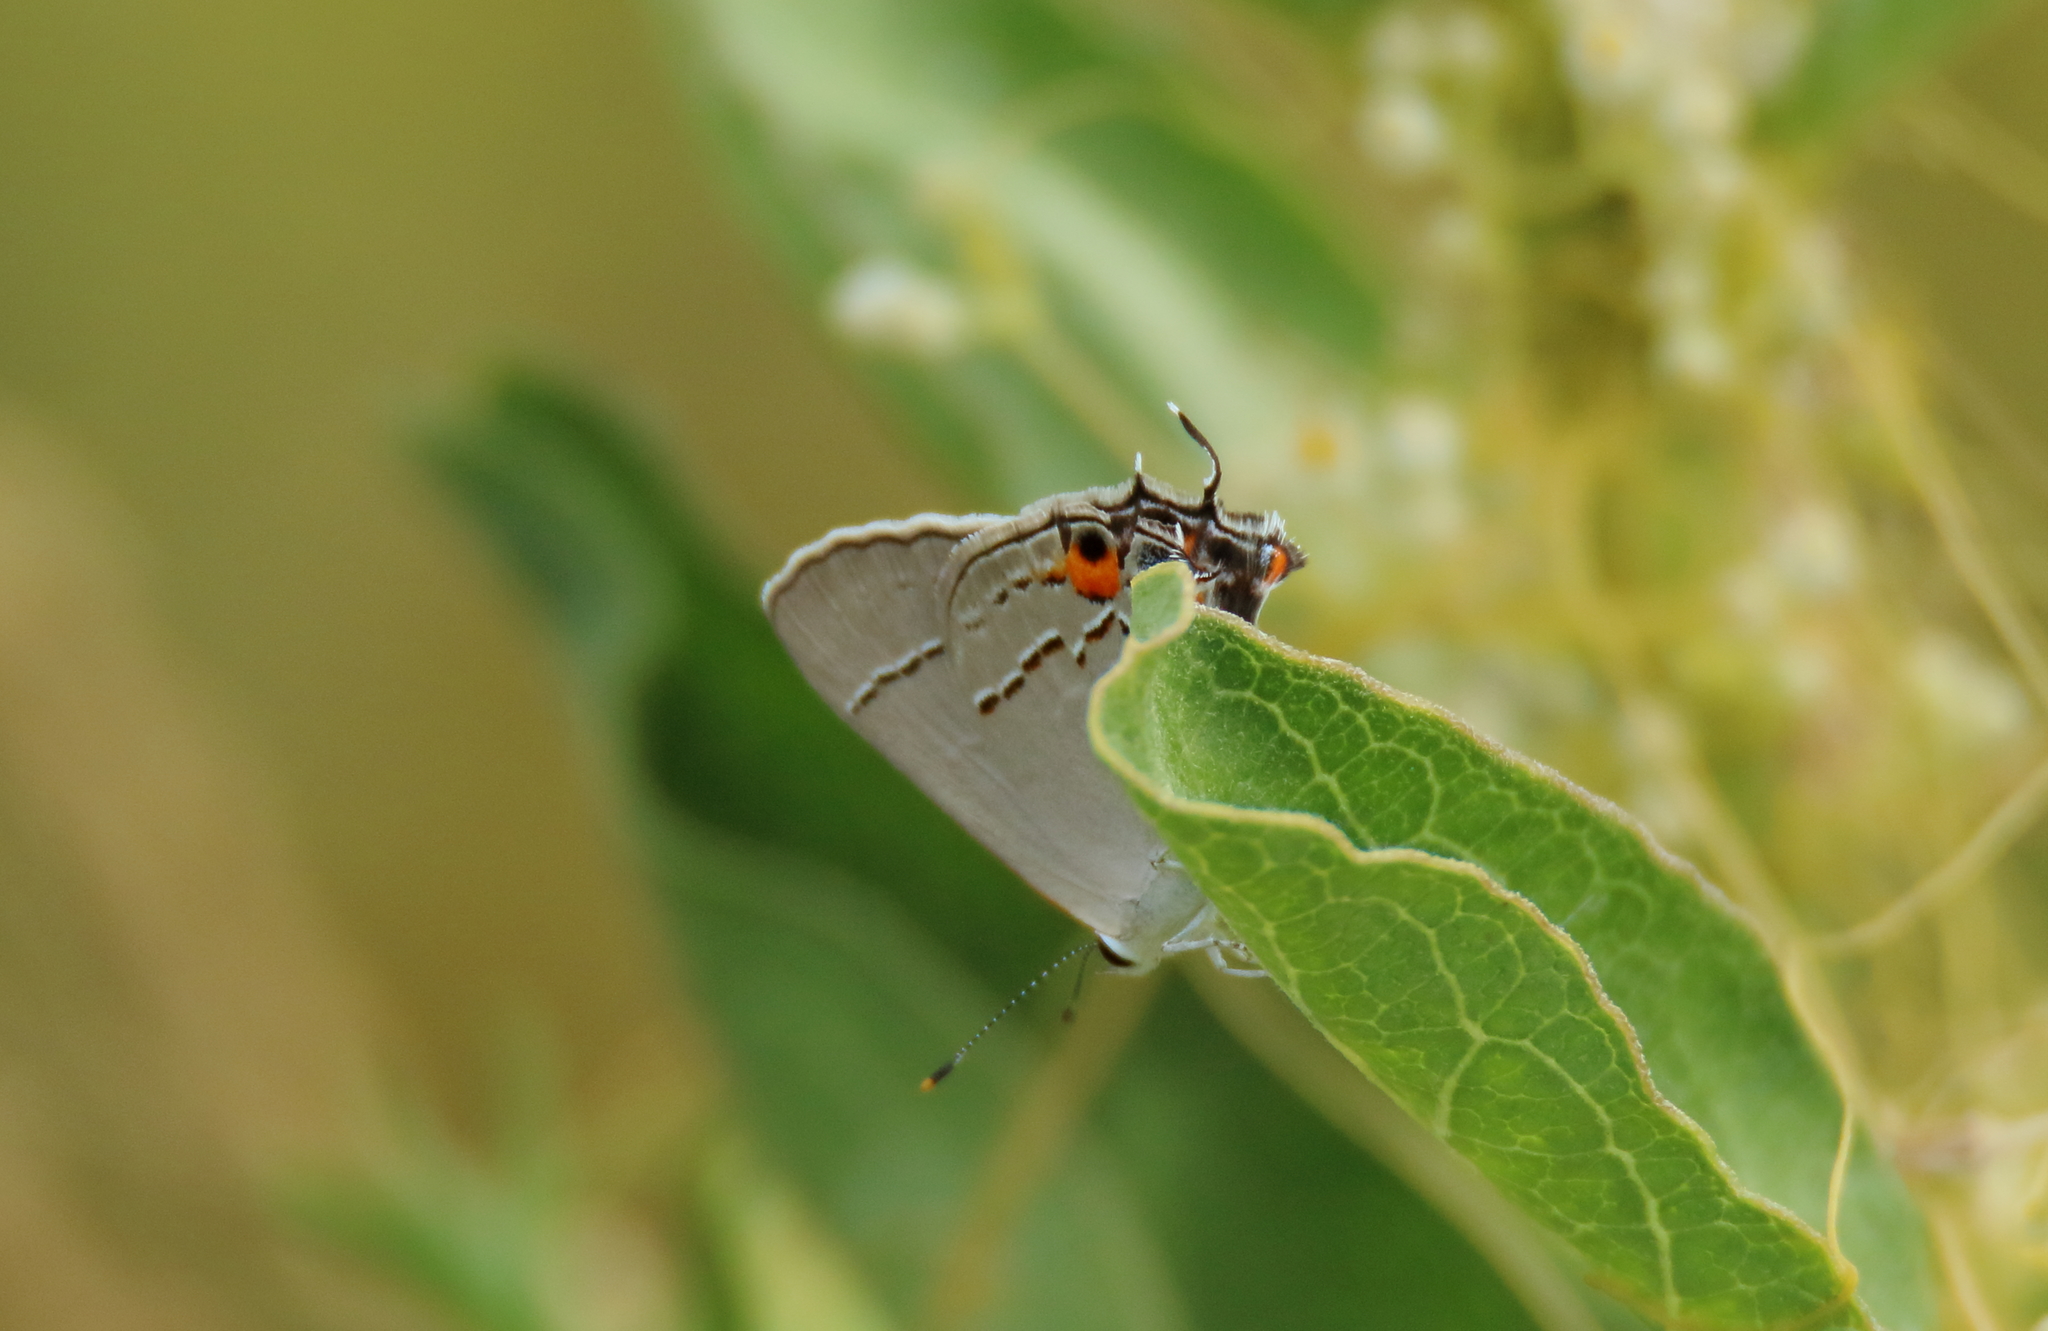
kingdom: Animalia
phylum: Arthropoda
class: Insecta
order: Lepidoptera
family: Lycaenidae
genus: Strymon
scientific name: Strymon melinus
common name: Gray hairstreak
